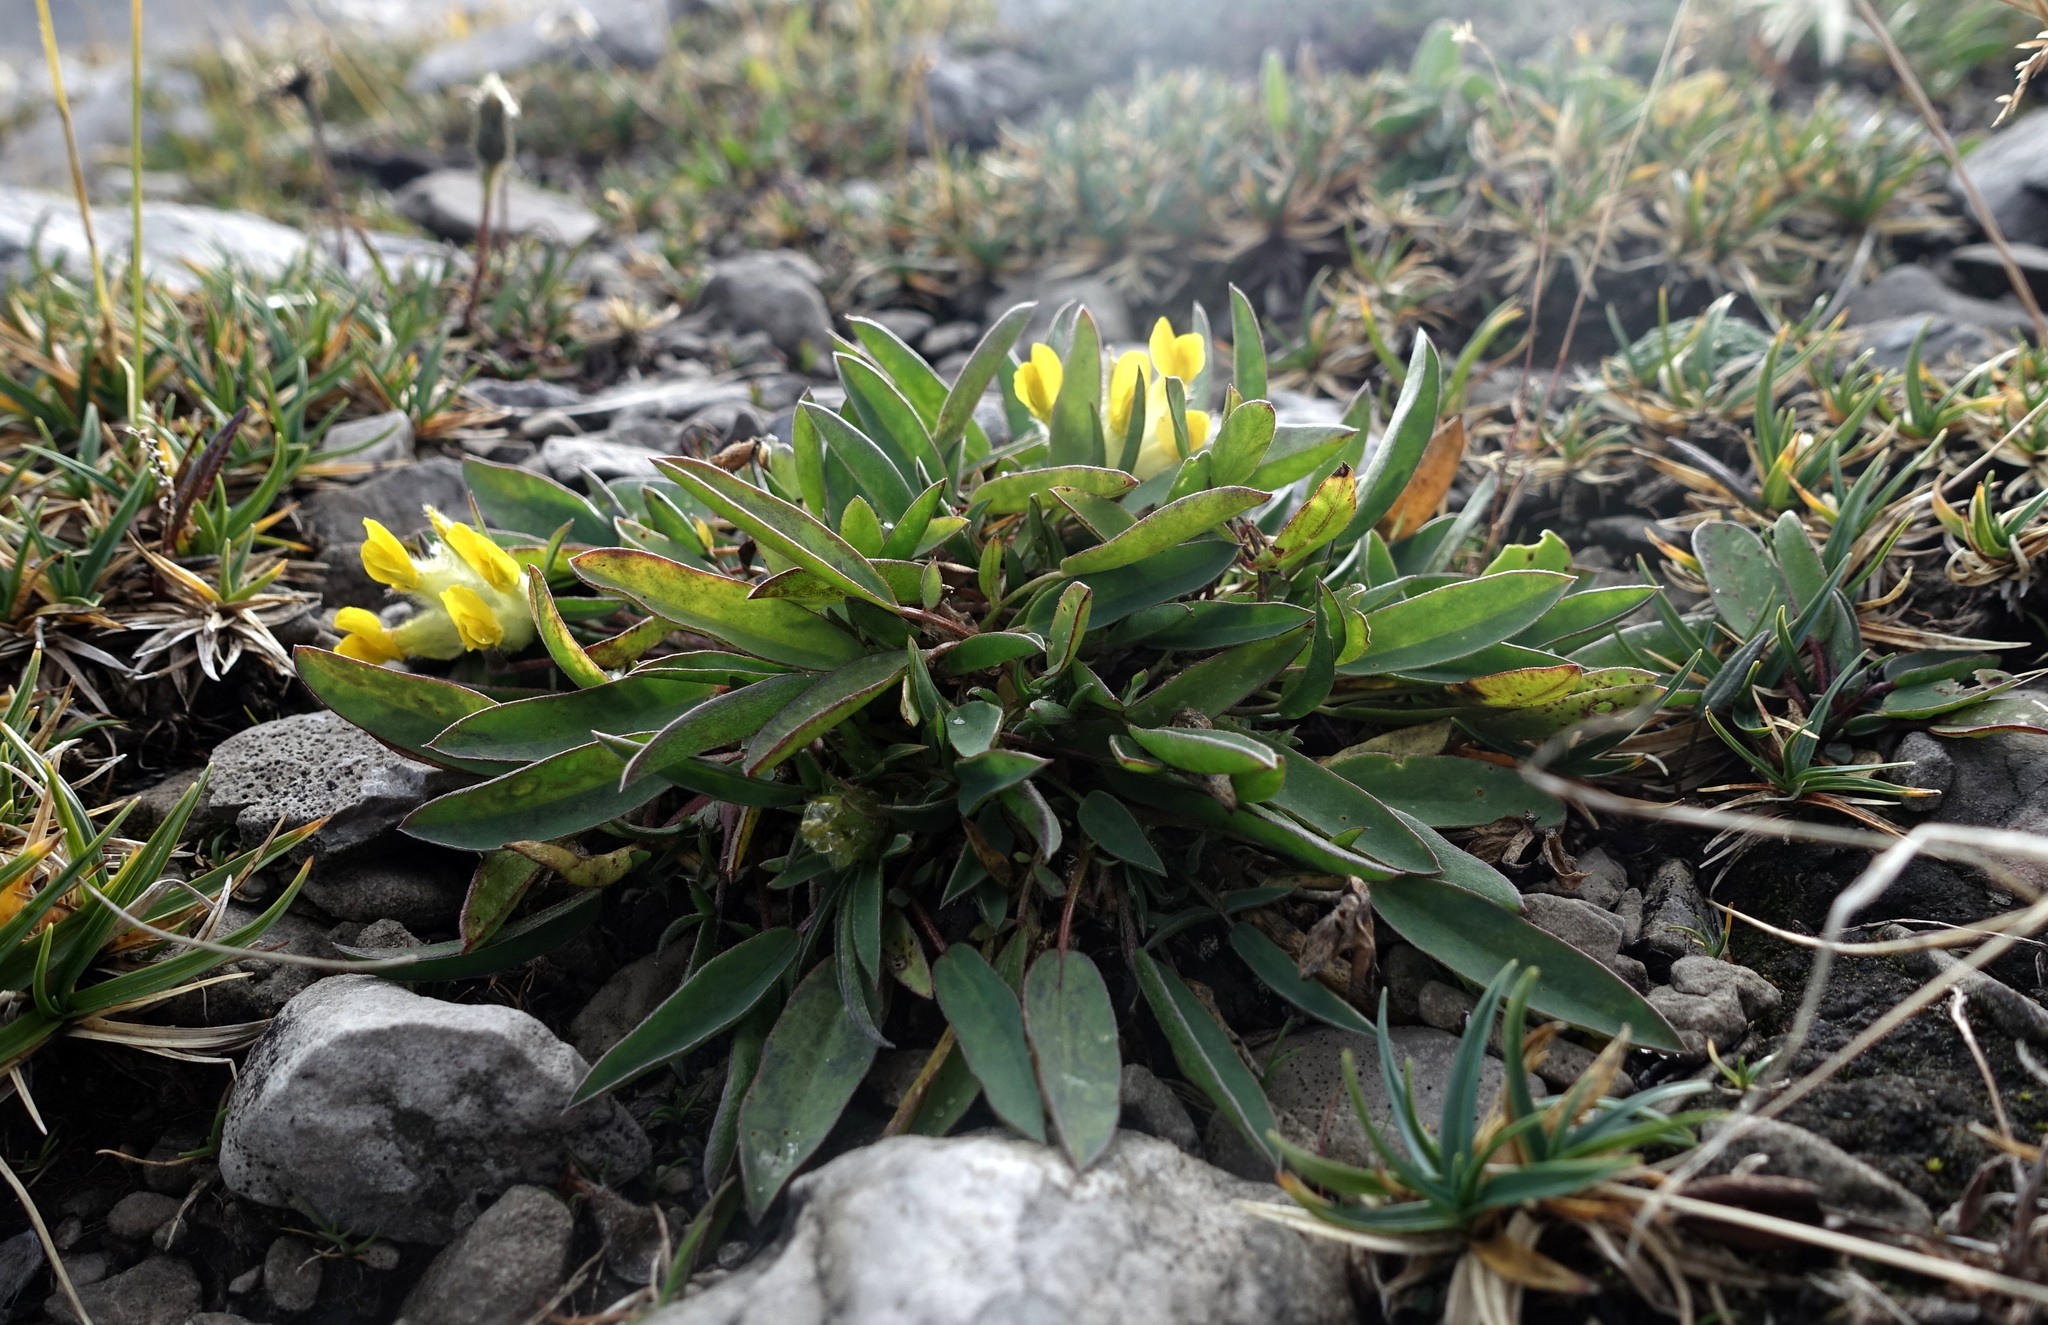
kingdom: Plantae
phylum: Tracheophyta
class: Magnoliopsida
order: Fabales
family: Fabaceae
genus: Anthyllis
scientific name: Anthyllis vulneraria
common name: Kidney vetch
